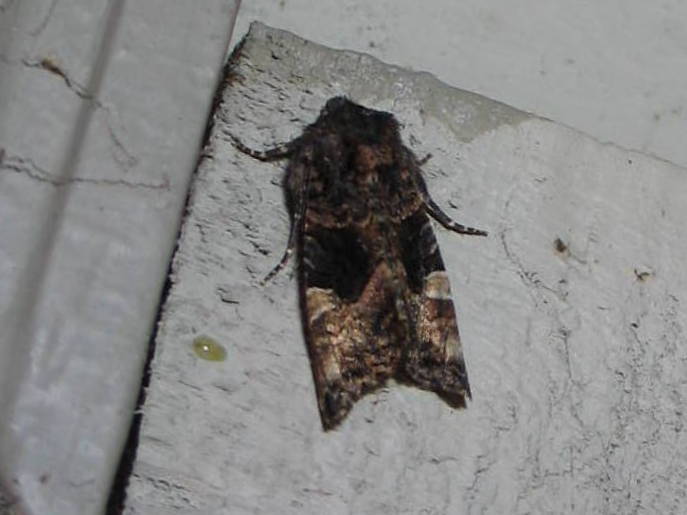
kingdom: Animalia
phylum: Arthropoda
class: Insecta
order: Lepidoptera
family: Noctuidae
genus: Euplexia
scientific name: Euplexia benesimilis
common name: American angle shades
